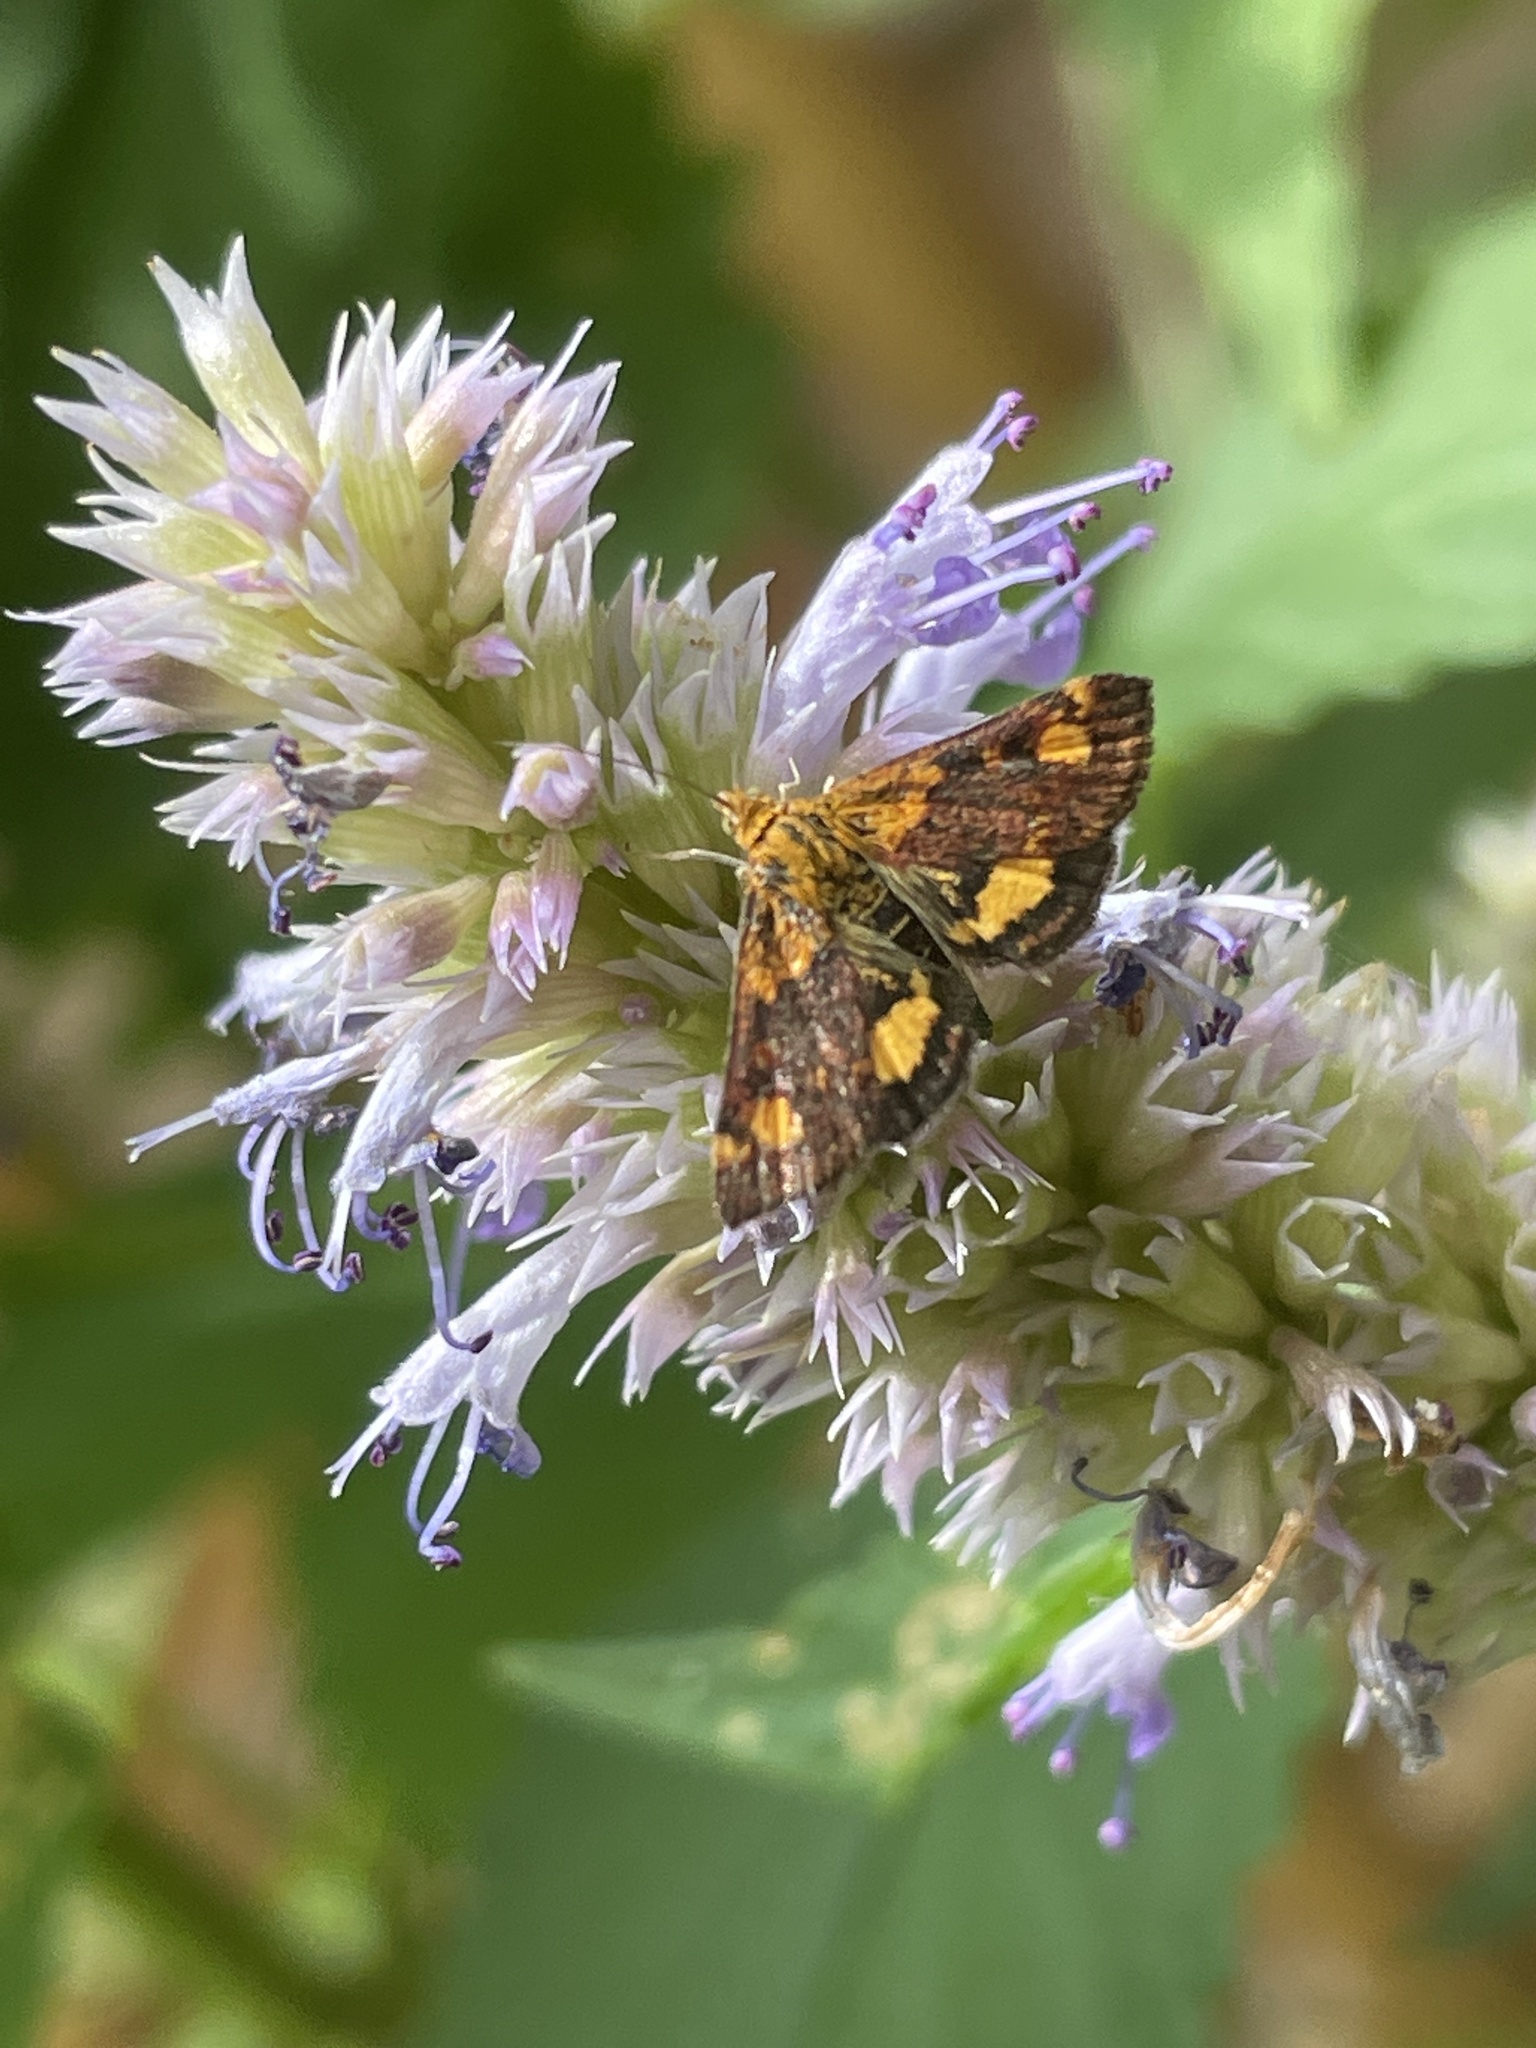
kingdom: Animalia
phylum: Arthropoda
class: Insecta
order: Lepidoptera
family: Crambidae
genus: Pyrausta
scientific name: Pyrausta orphisalis
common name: Orange mint moth
